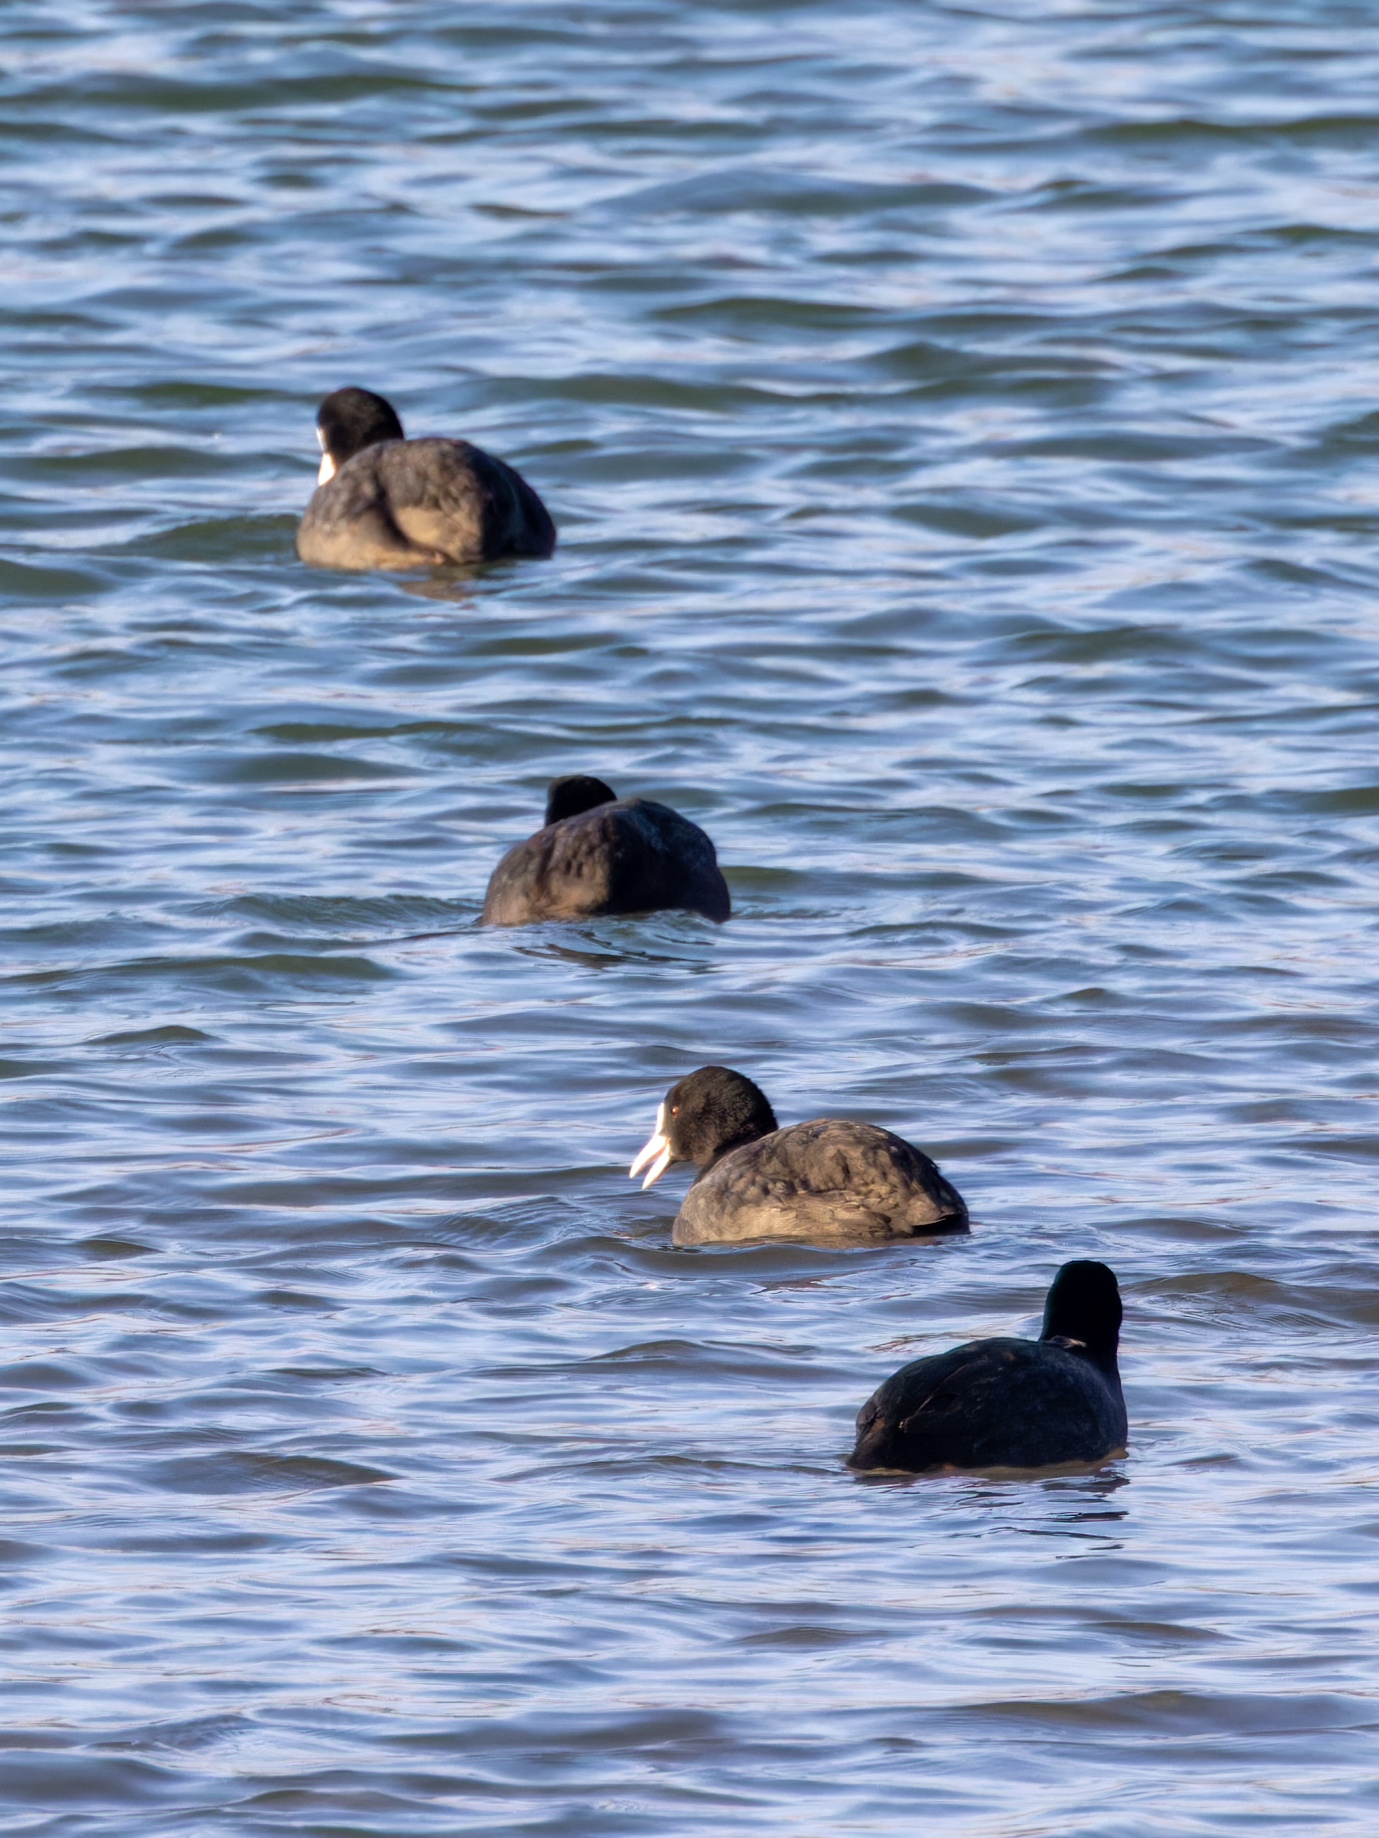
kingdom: Animalia
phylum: Chordata
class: Aves
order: Gruiformes
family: Rallidae
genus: Fulica
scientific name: Fulica atra
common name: Eurasian coot
